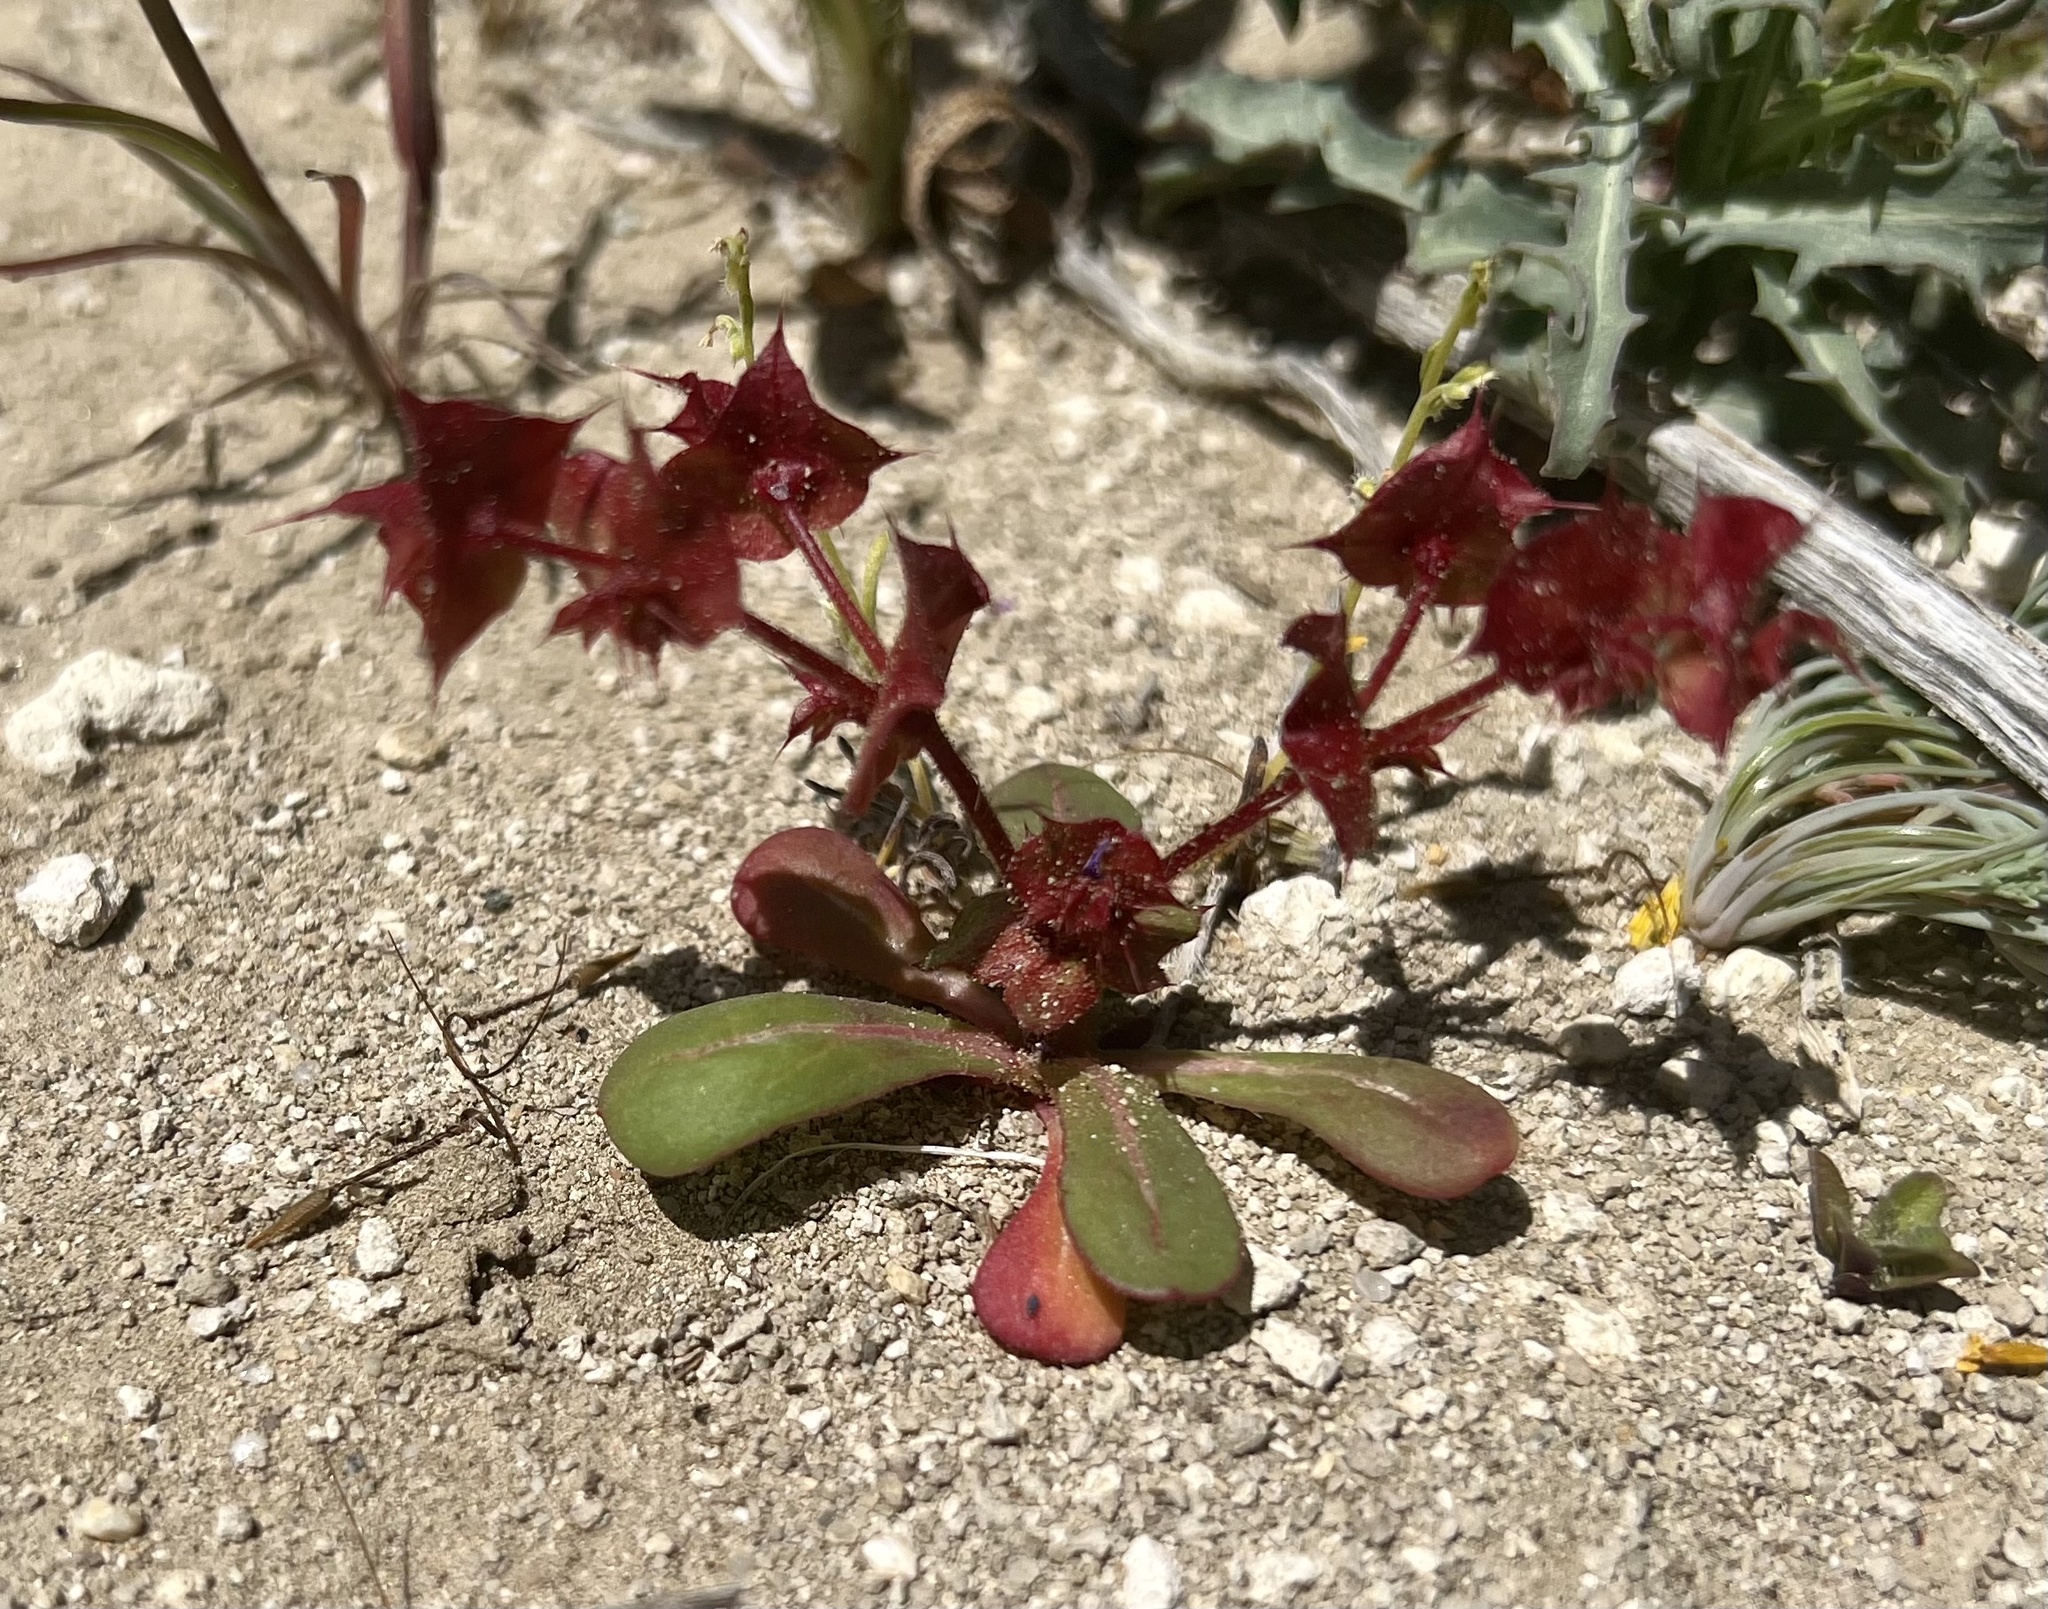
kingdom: Plantae
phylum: Tracheophyta
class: Magnoliopsida
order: Caryophyllales
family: Polygonaceae
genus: Mucronea
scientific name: Mucronea perfoliata
